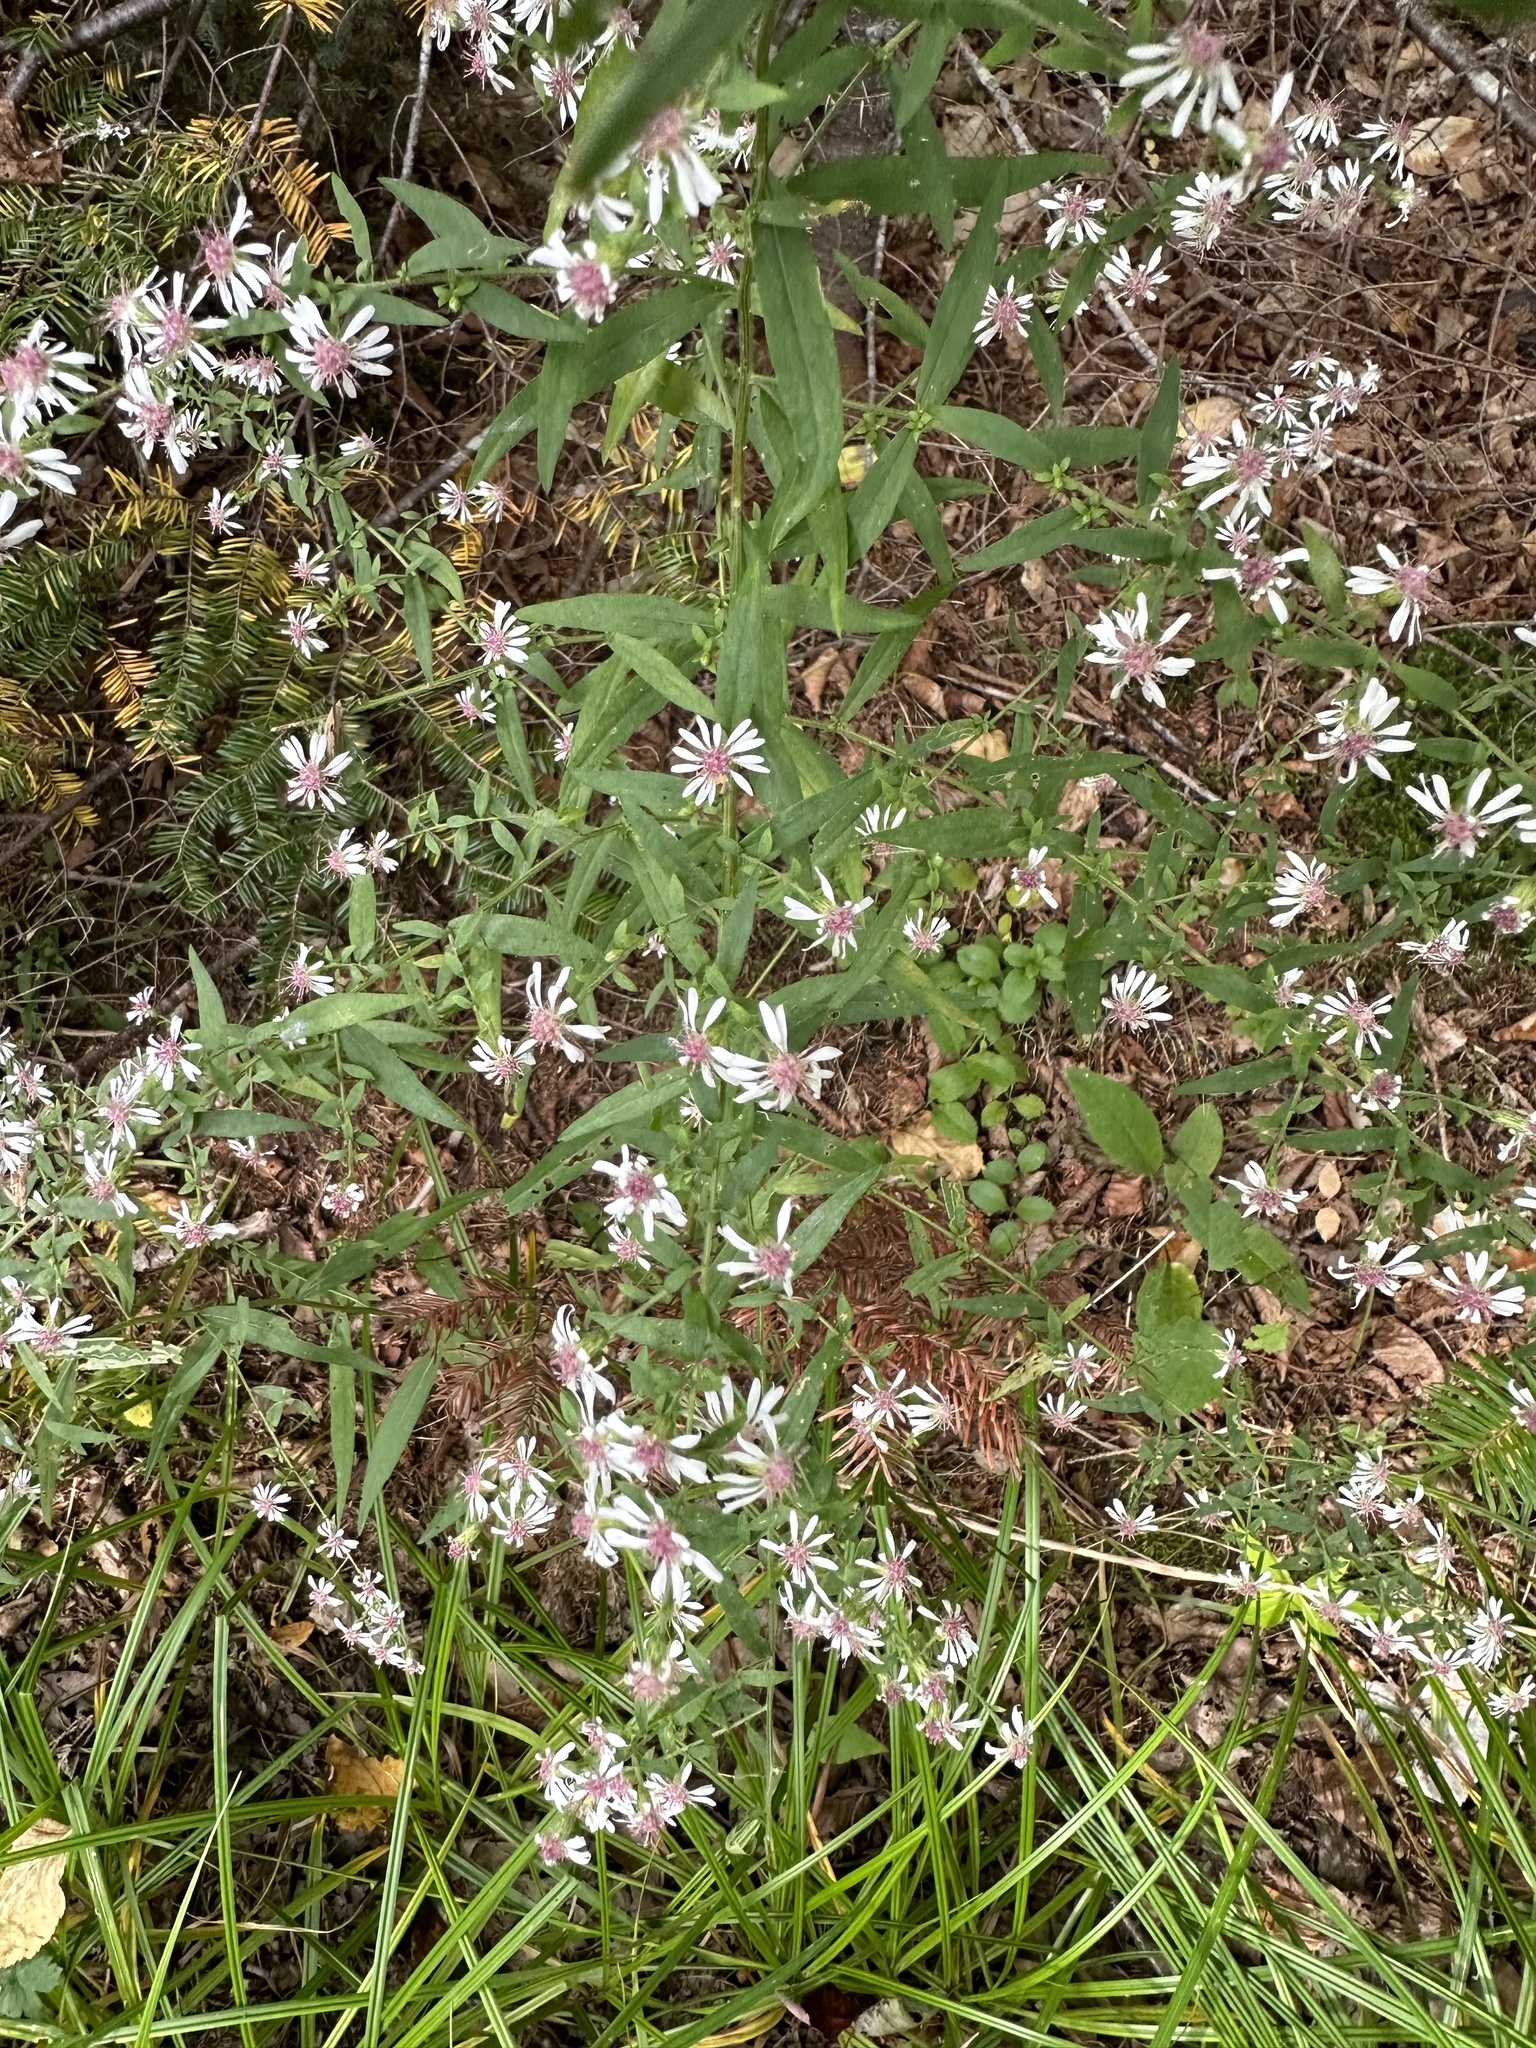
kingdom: Plantae
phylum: Tracheophyta
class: Magnoliopsida
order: Asterales
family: Asteraceae
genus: Symphyotrichum
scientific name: Symphyotrichum lateriflorum
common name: Calico aster
